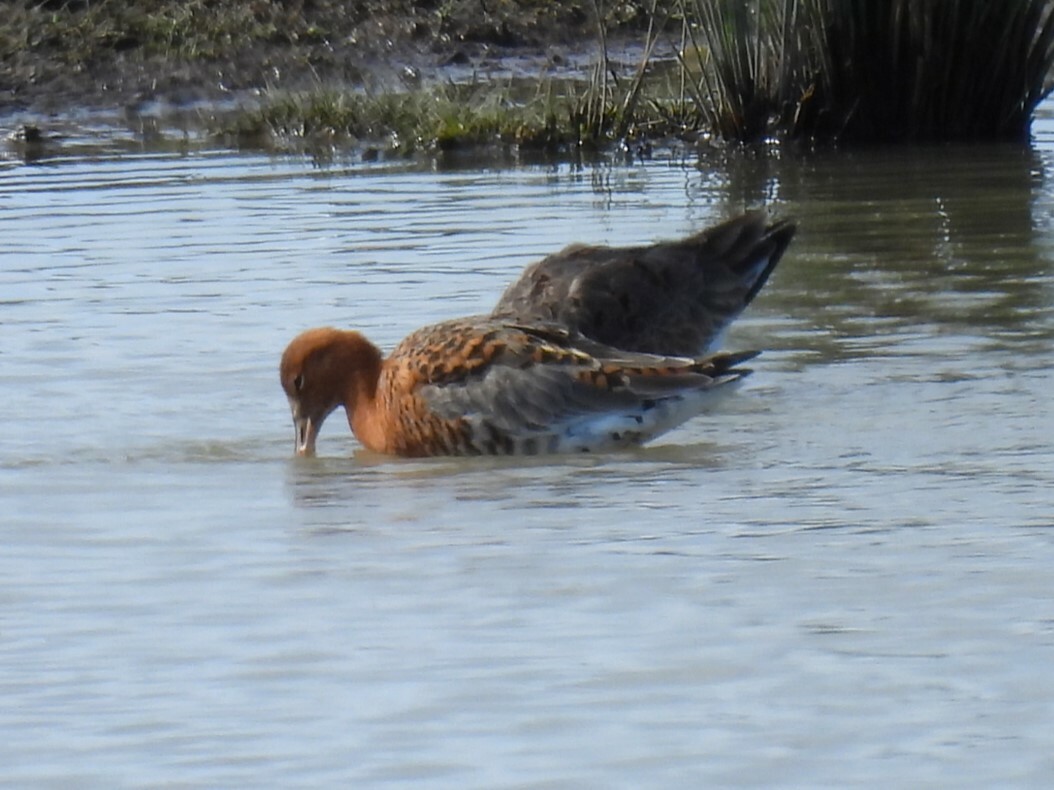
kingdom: Animalia
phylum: Chordata
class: Aves
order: Charadriiformes
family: Scolopacidae
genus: Limosa
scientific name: Limosa limosa
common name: Black-tailed godwit
